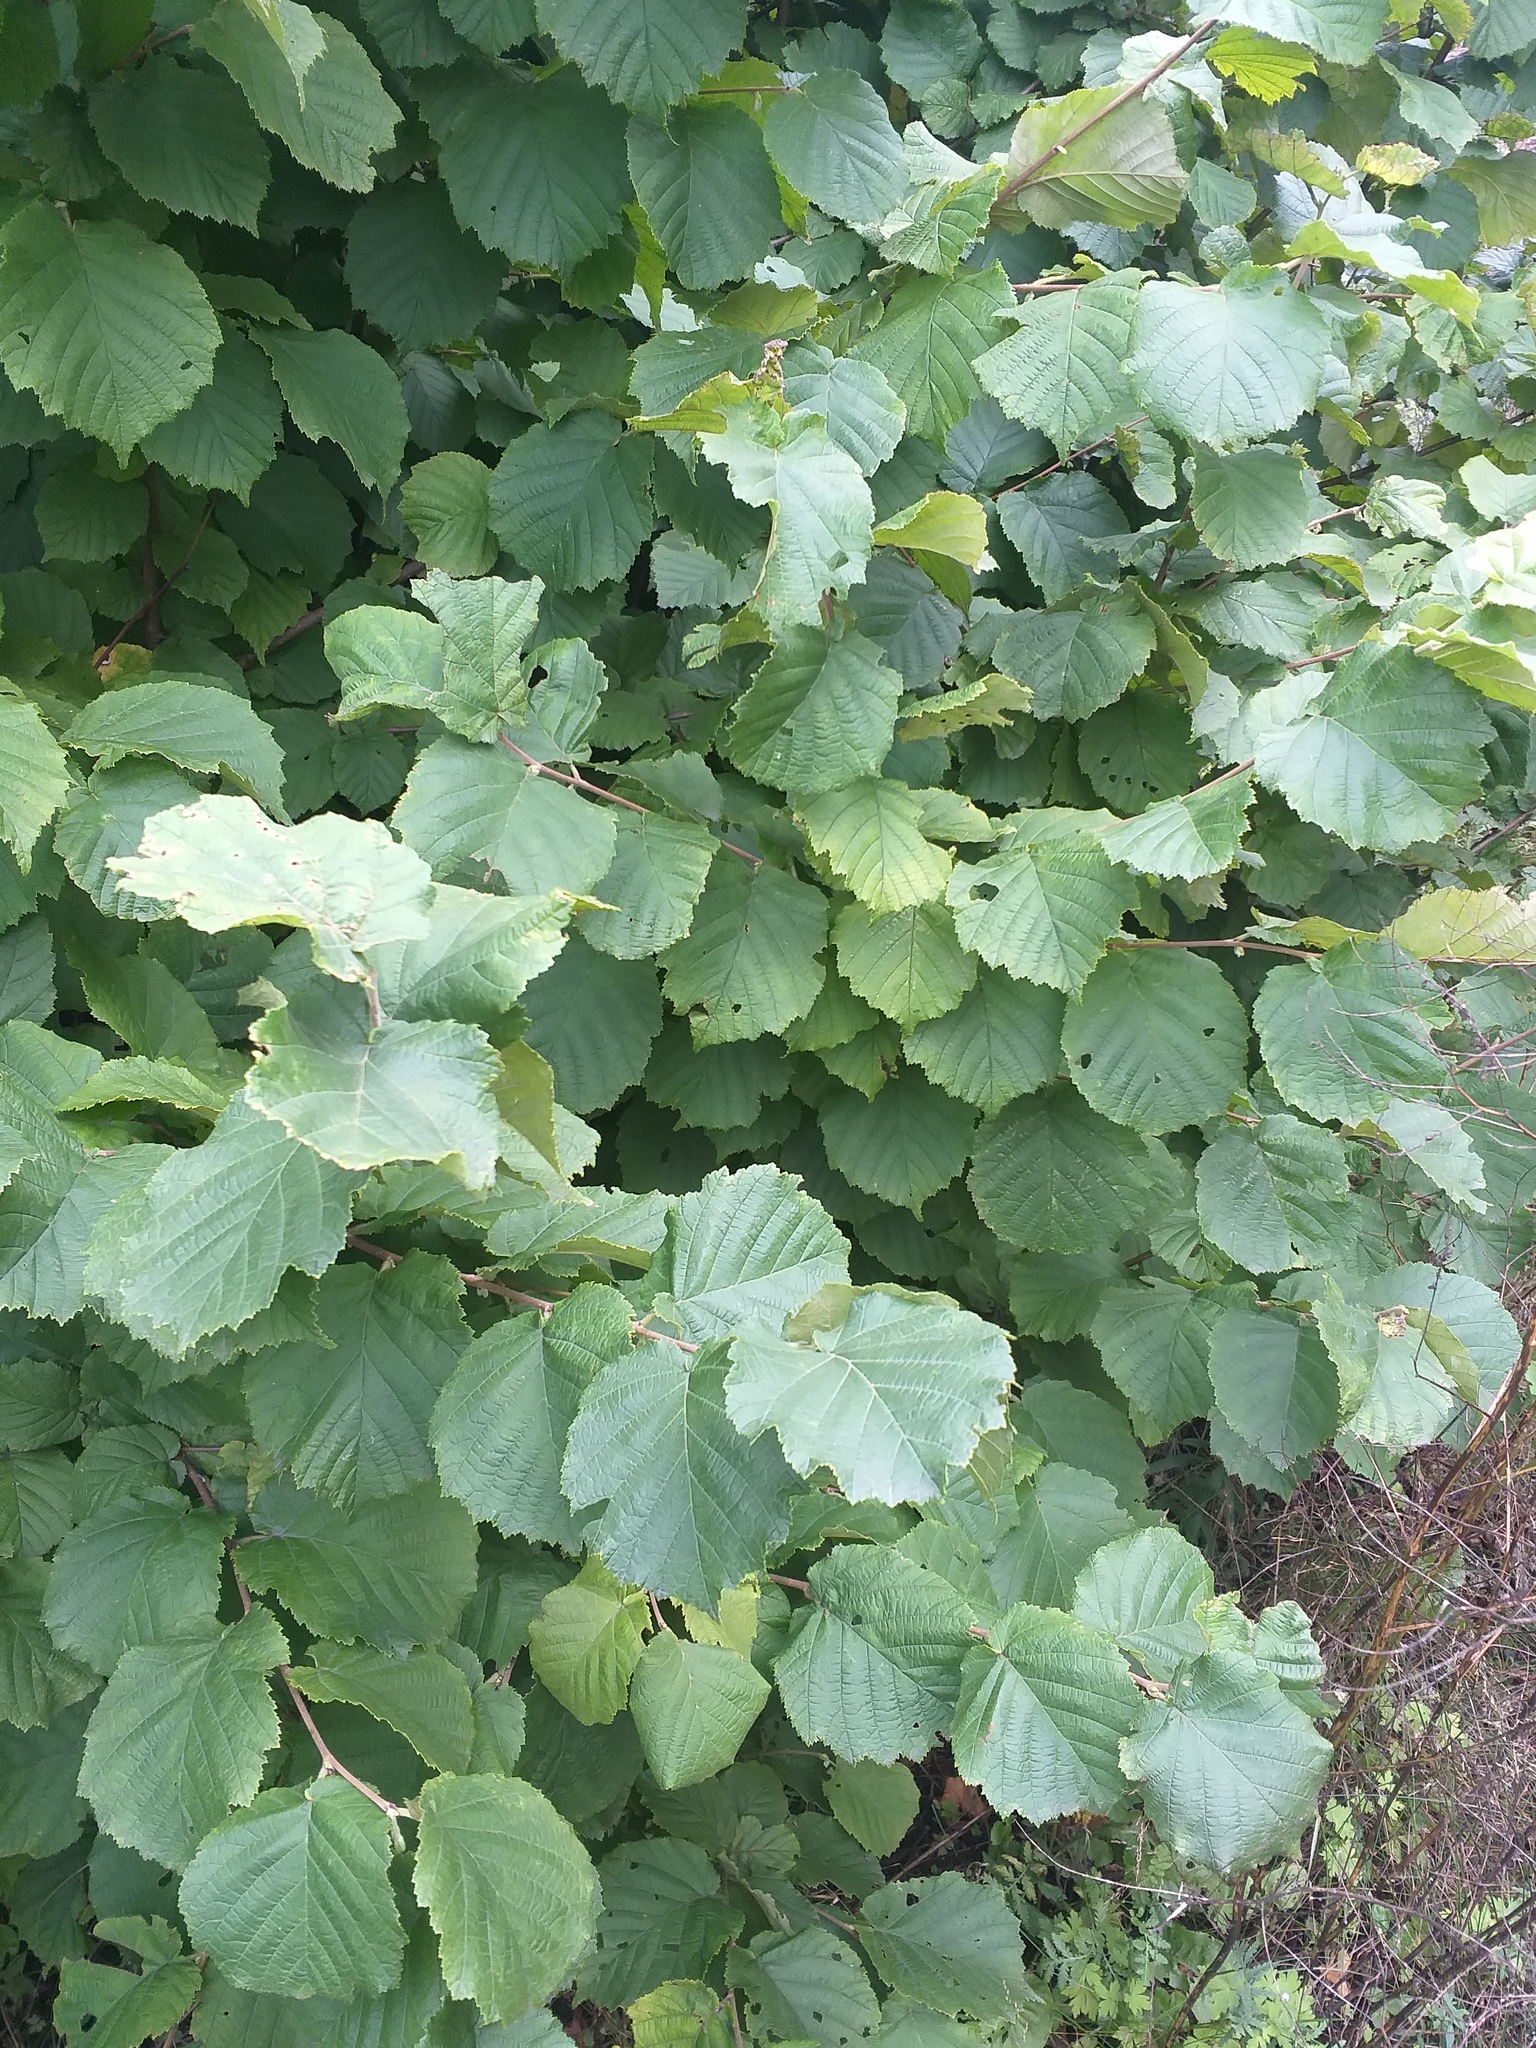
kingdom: Plantae
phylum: Tracheophyta
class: Magnoliopsida
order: Fagales
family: Betulaceae
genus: Corylus
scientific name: Corylus avellana
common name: European hazel
